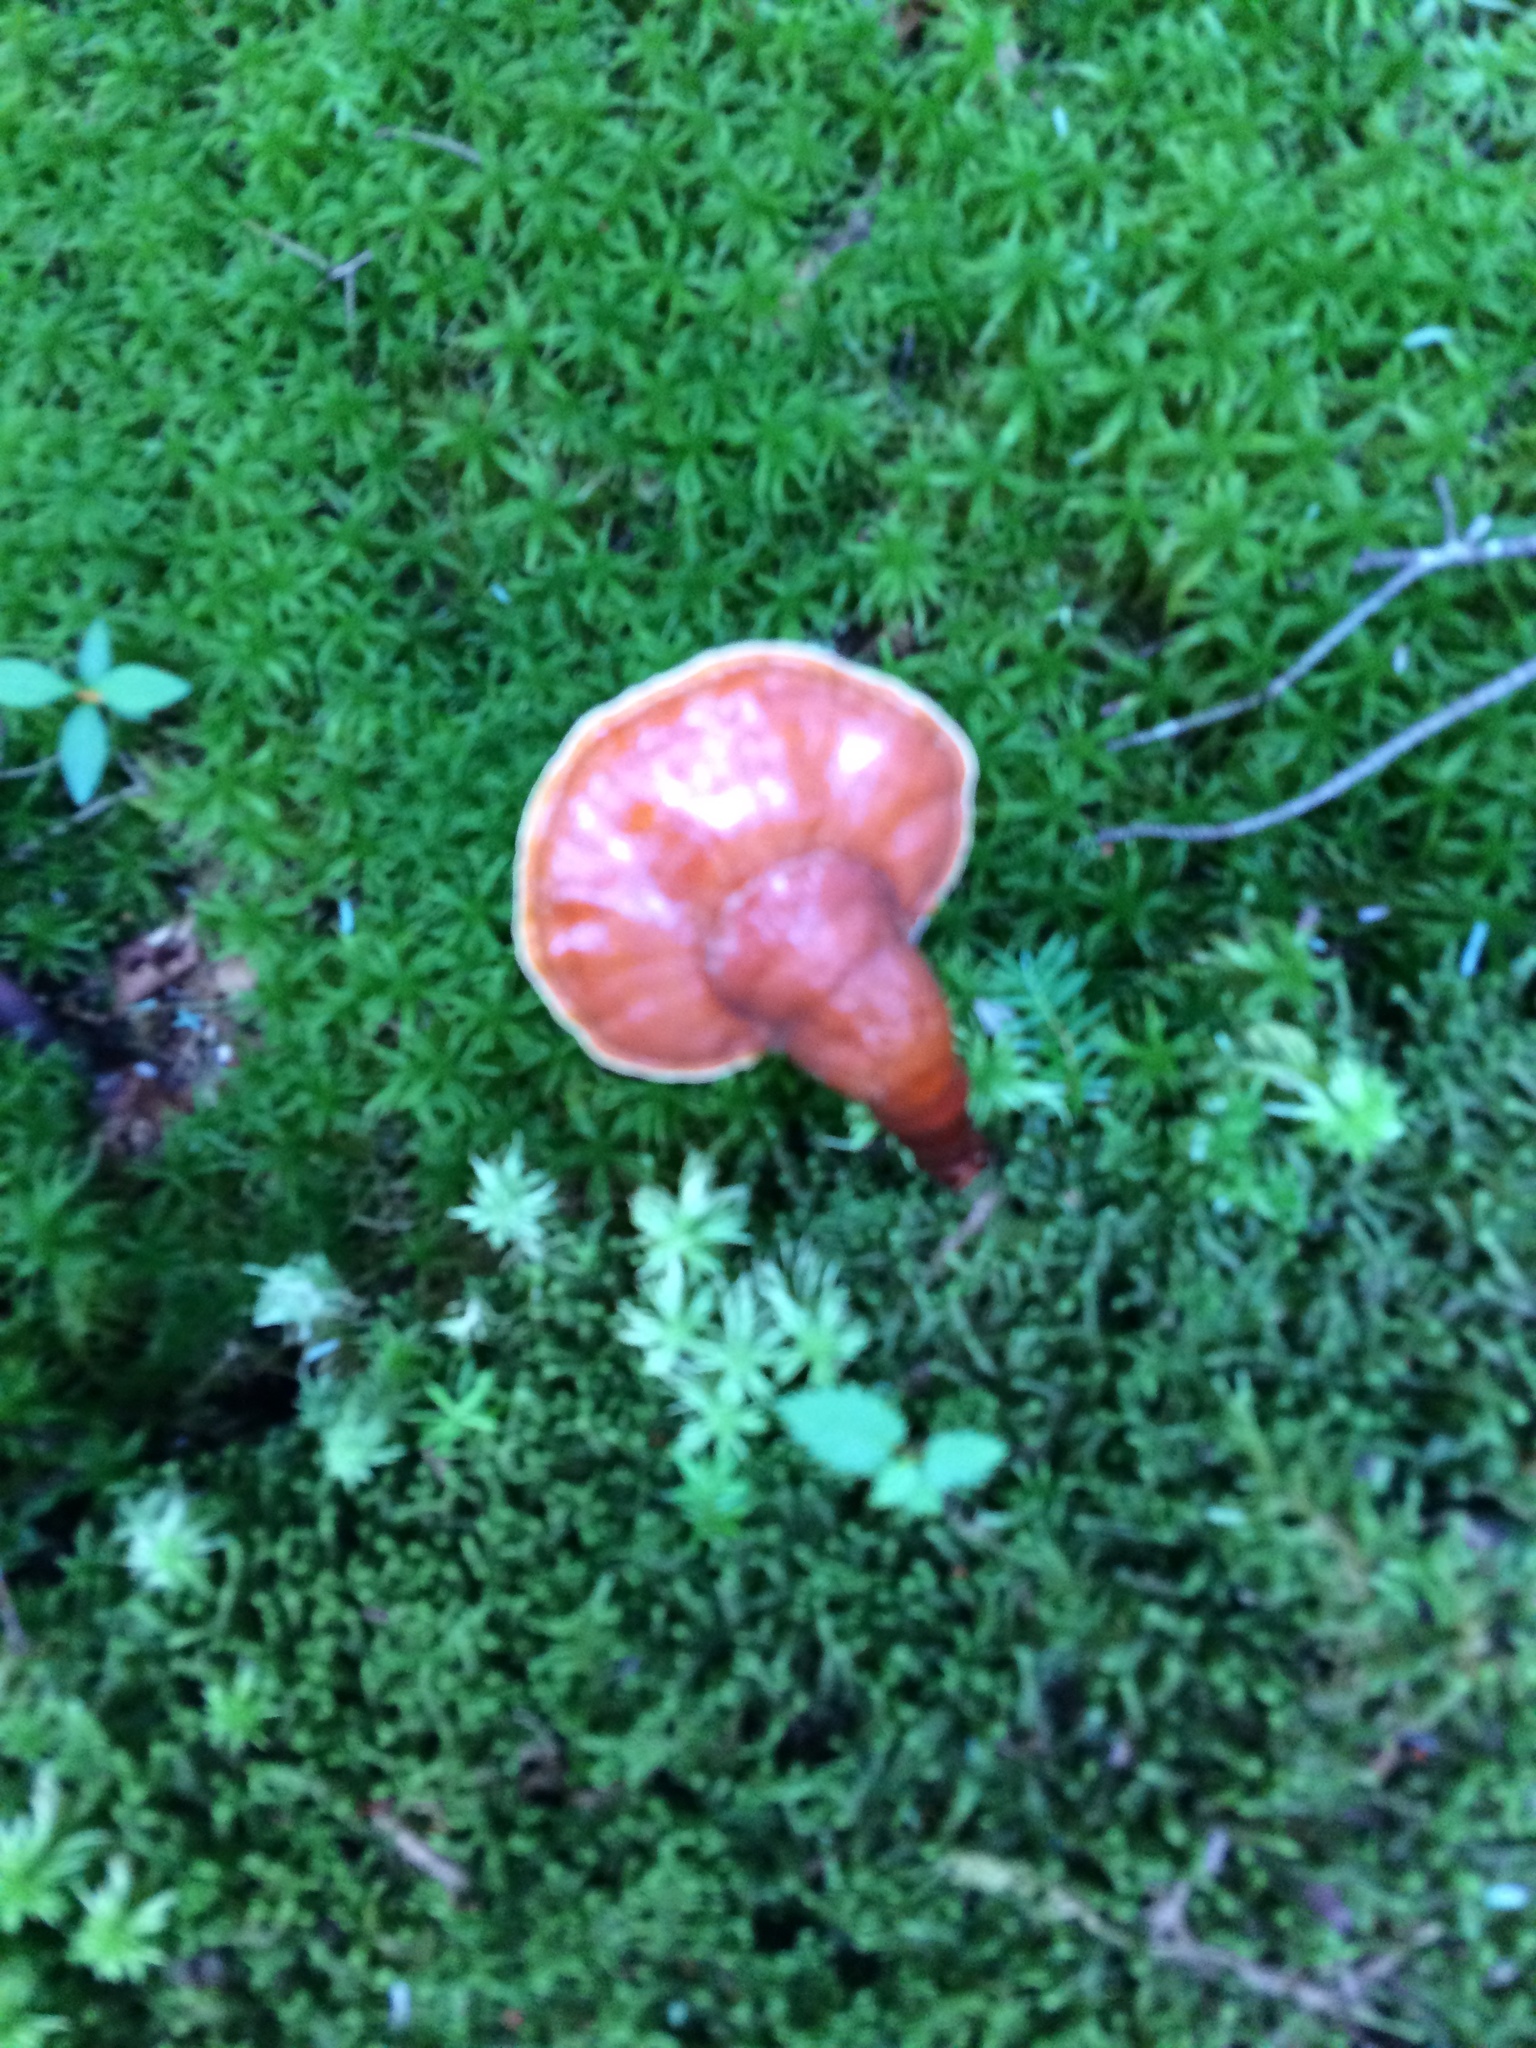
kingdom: Fungi
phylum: Basidiomycota
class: Agaricomycetes
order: Polyporales
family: Polyporaceae
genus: Ganoderma
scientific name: Ganoderma tsugae
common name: Hemlock varnish shelf
